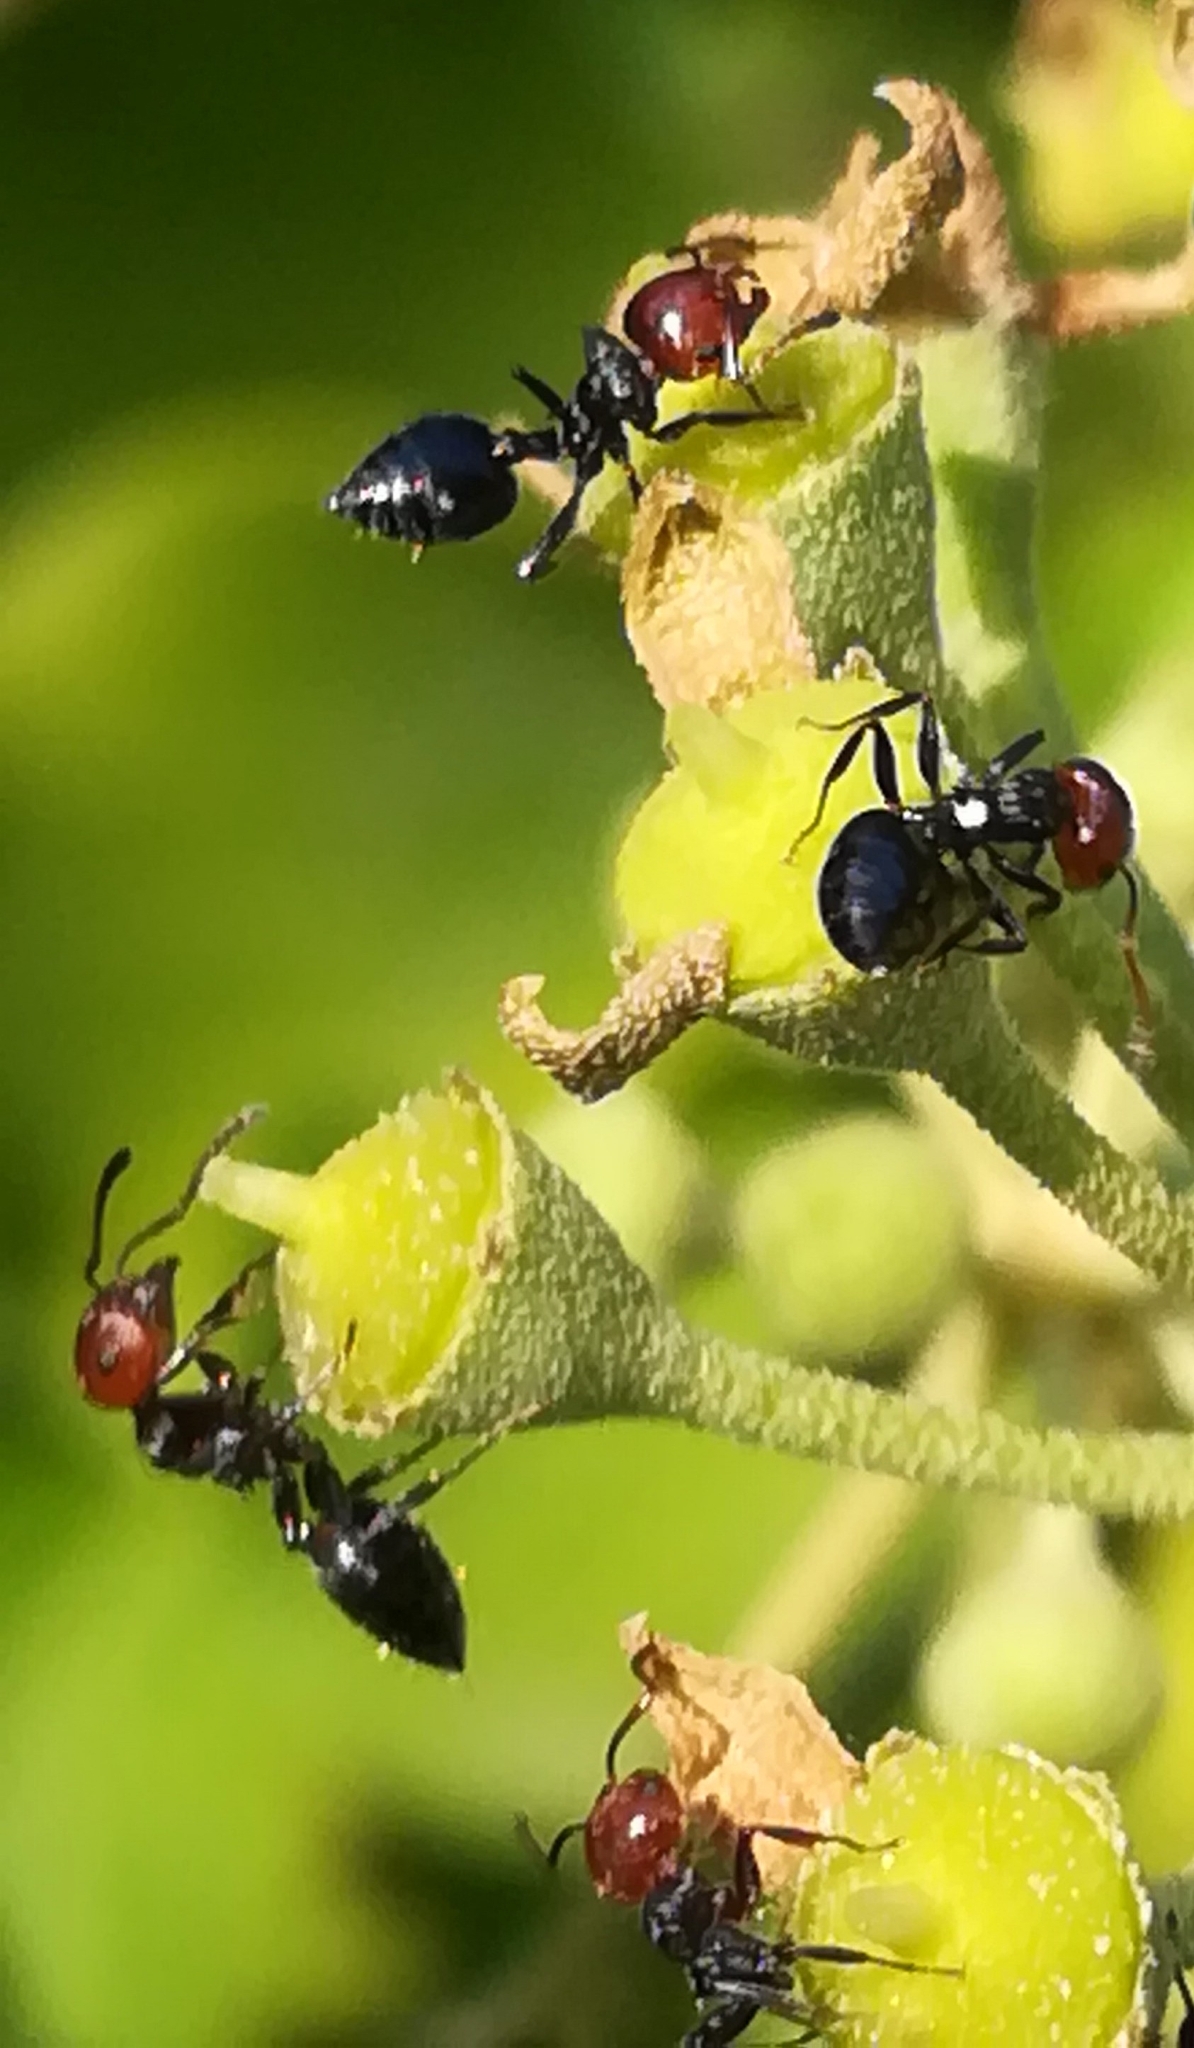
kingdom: Animalia
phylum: Arthropoda
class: Insecta
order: Hymenoptera
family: Formicidae
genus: Crematogaster
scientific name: Crematogaster scutellaris
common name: Fourmi du liège
